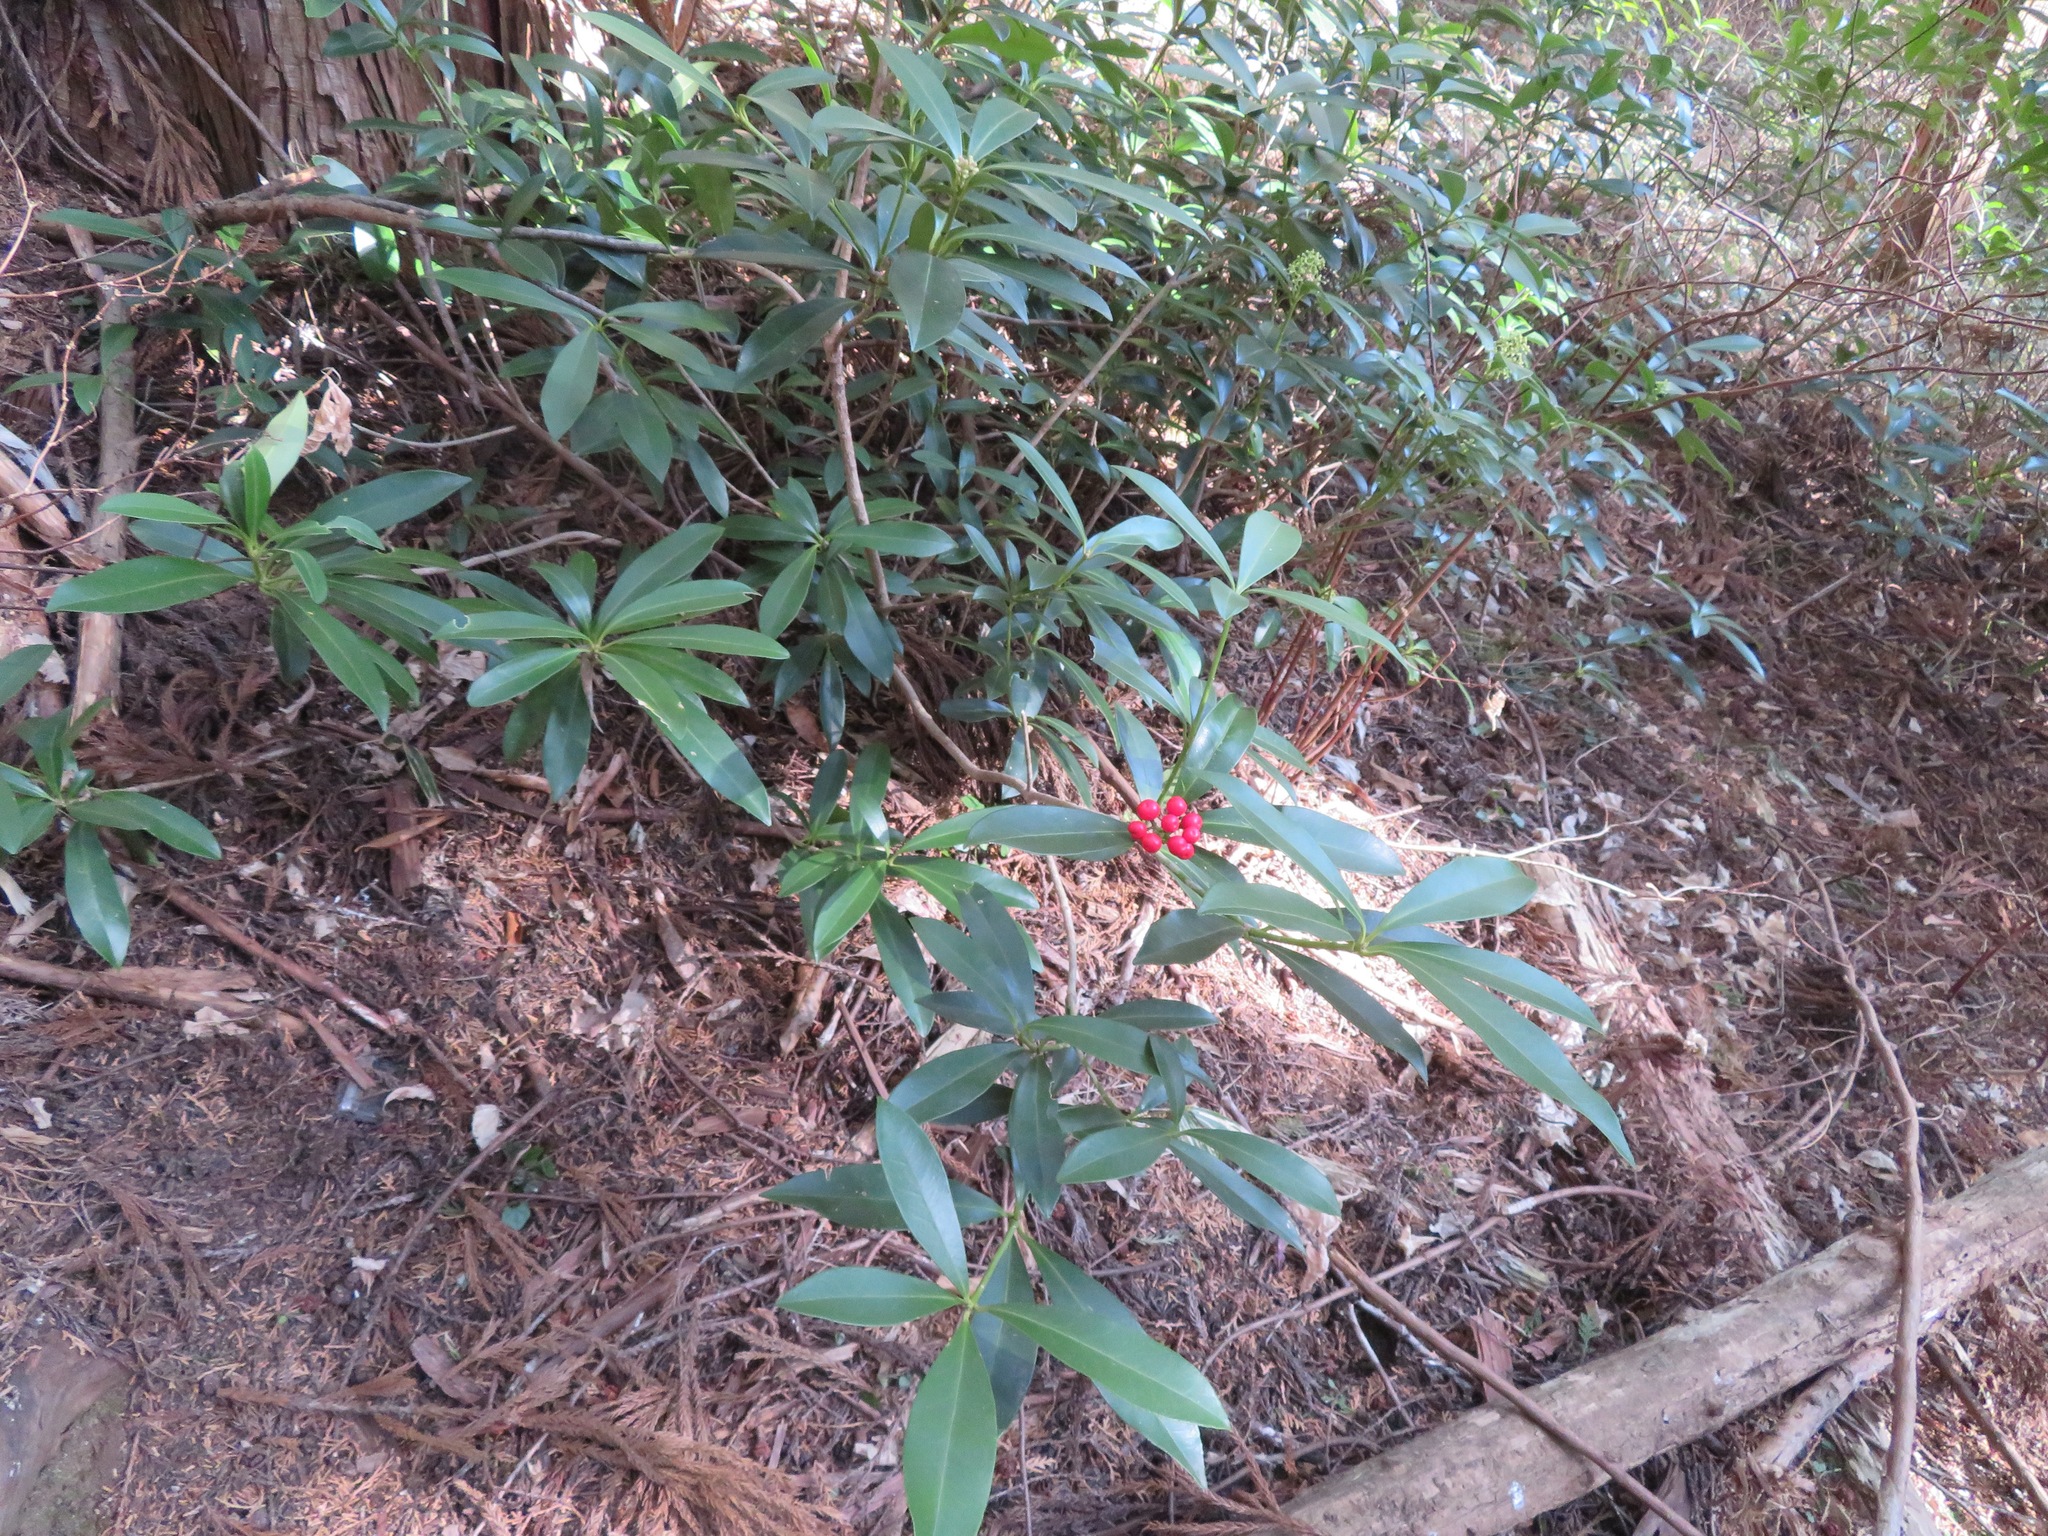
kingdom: Plantae
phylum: Tracheophyta
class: Magnoliopsida
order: Sapindales
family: Rutaceae
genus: Skimmia
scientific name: Skimmia japonica
